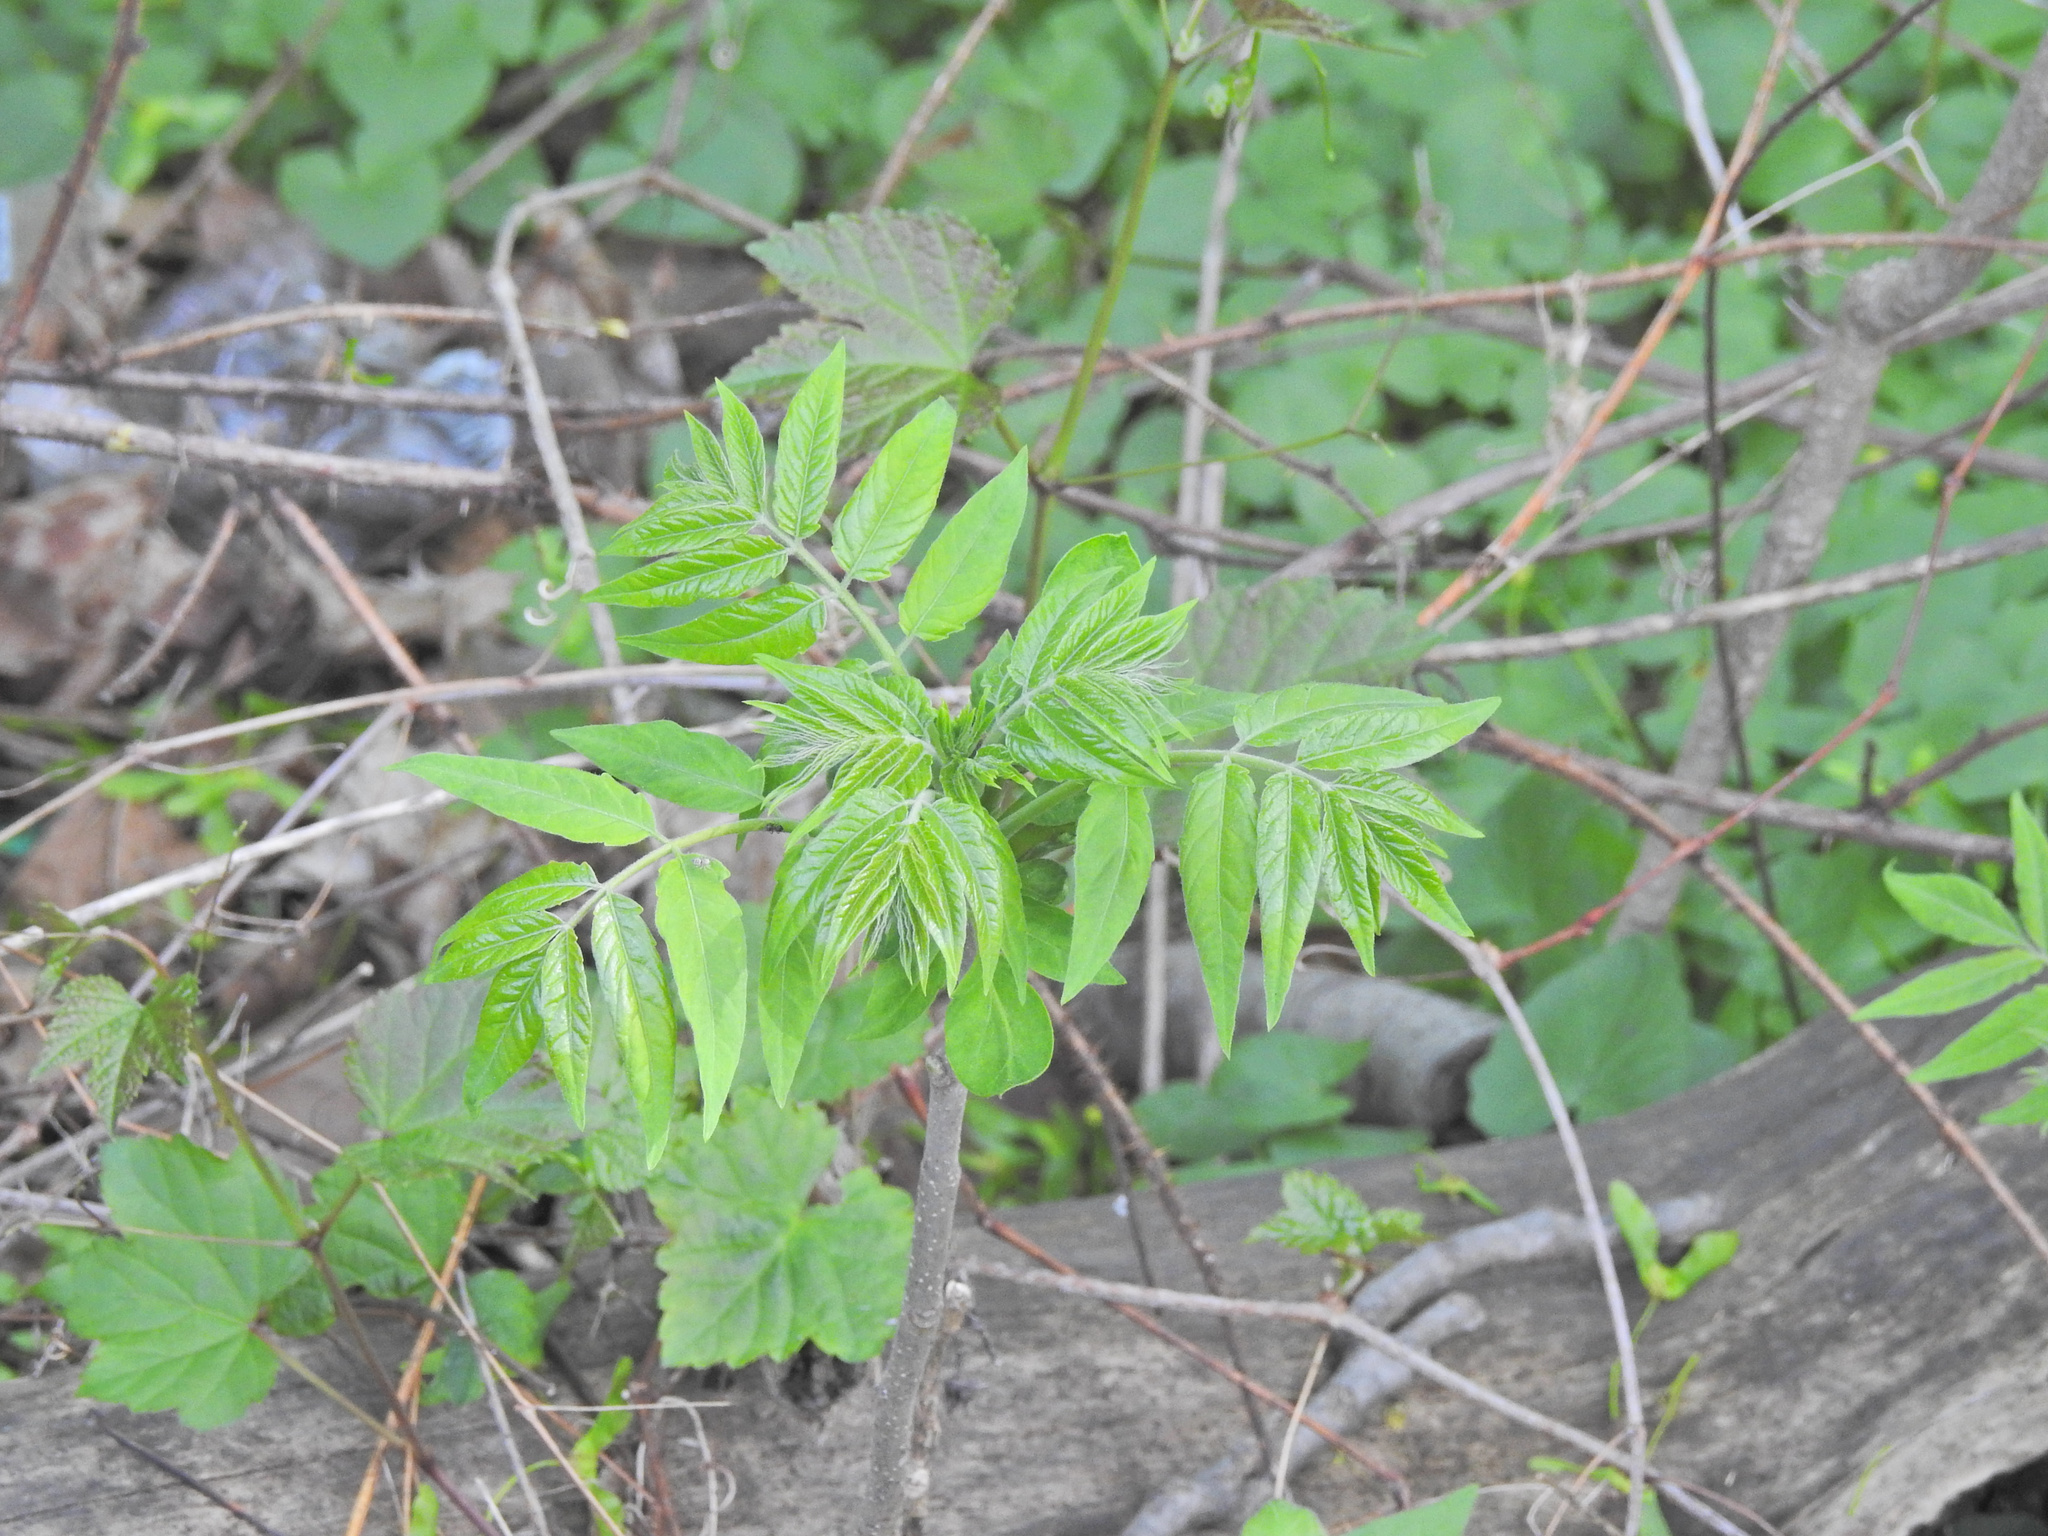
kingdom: Plantae
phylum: Tracheophyta
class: Magnoliopsida
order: Sapindales
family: Simaroubaceae
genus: Ailanthus
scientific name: Ailanthus altissima
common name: Tree-of-heaven
